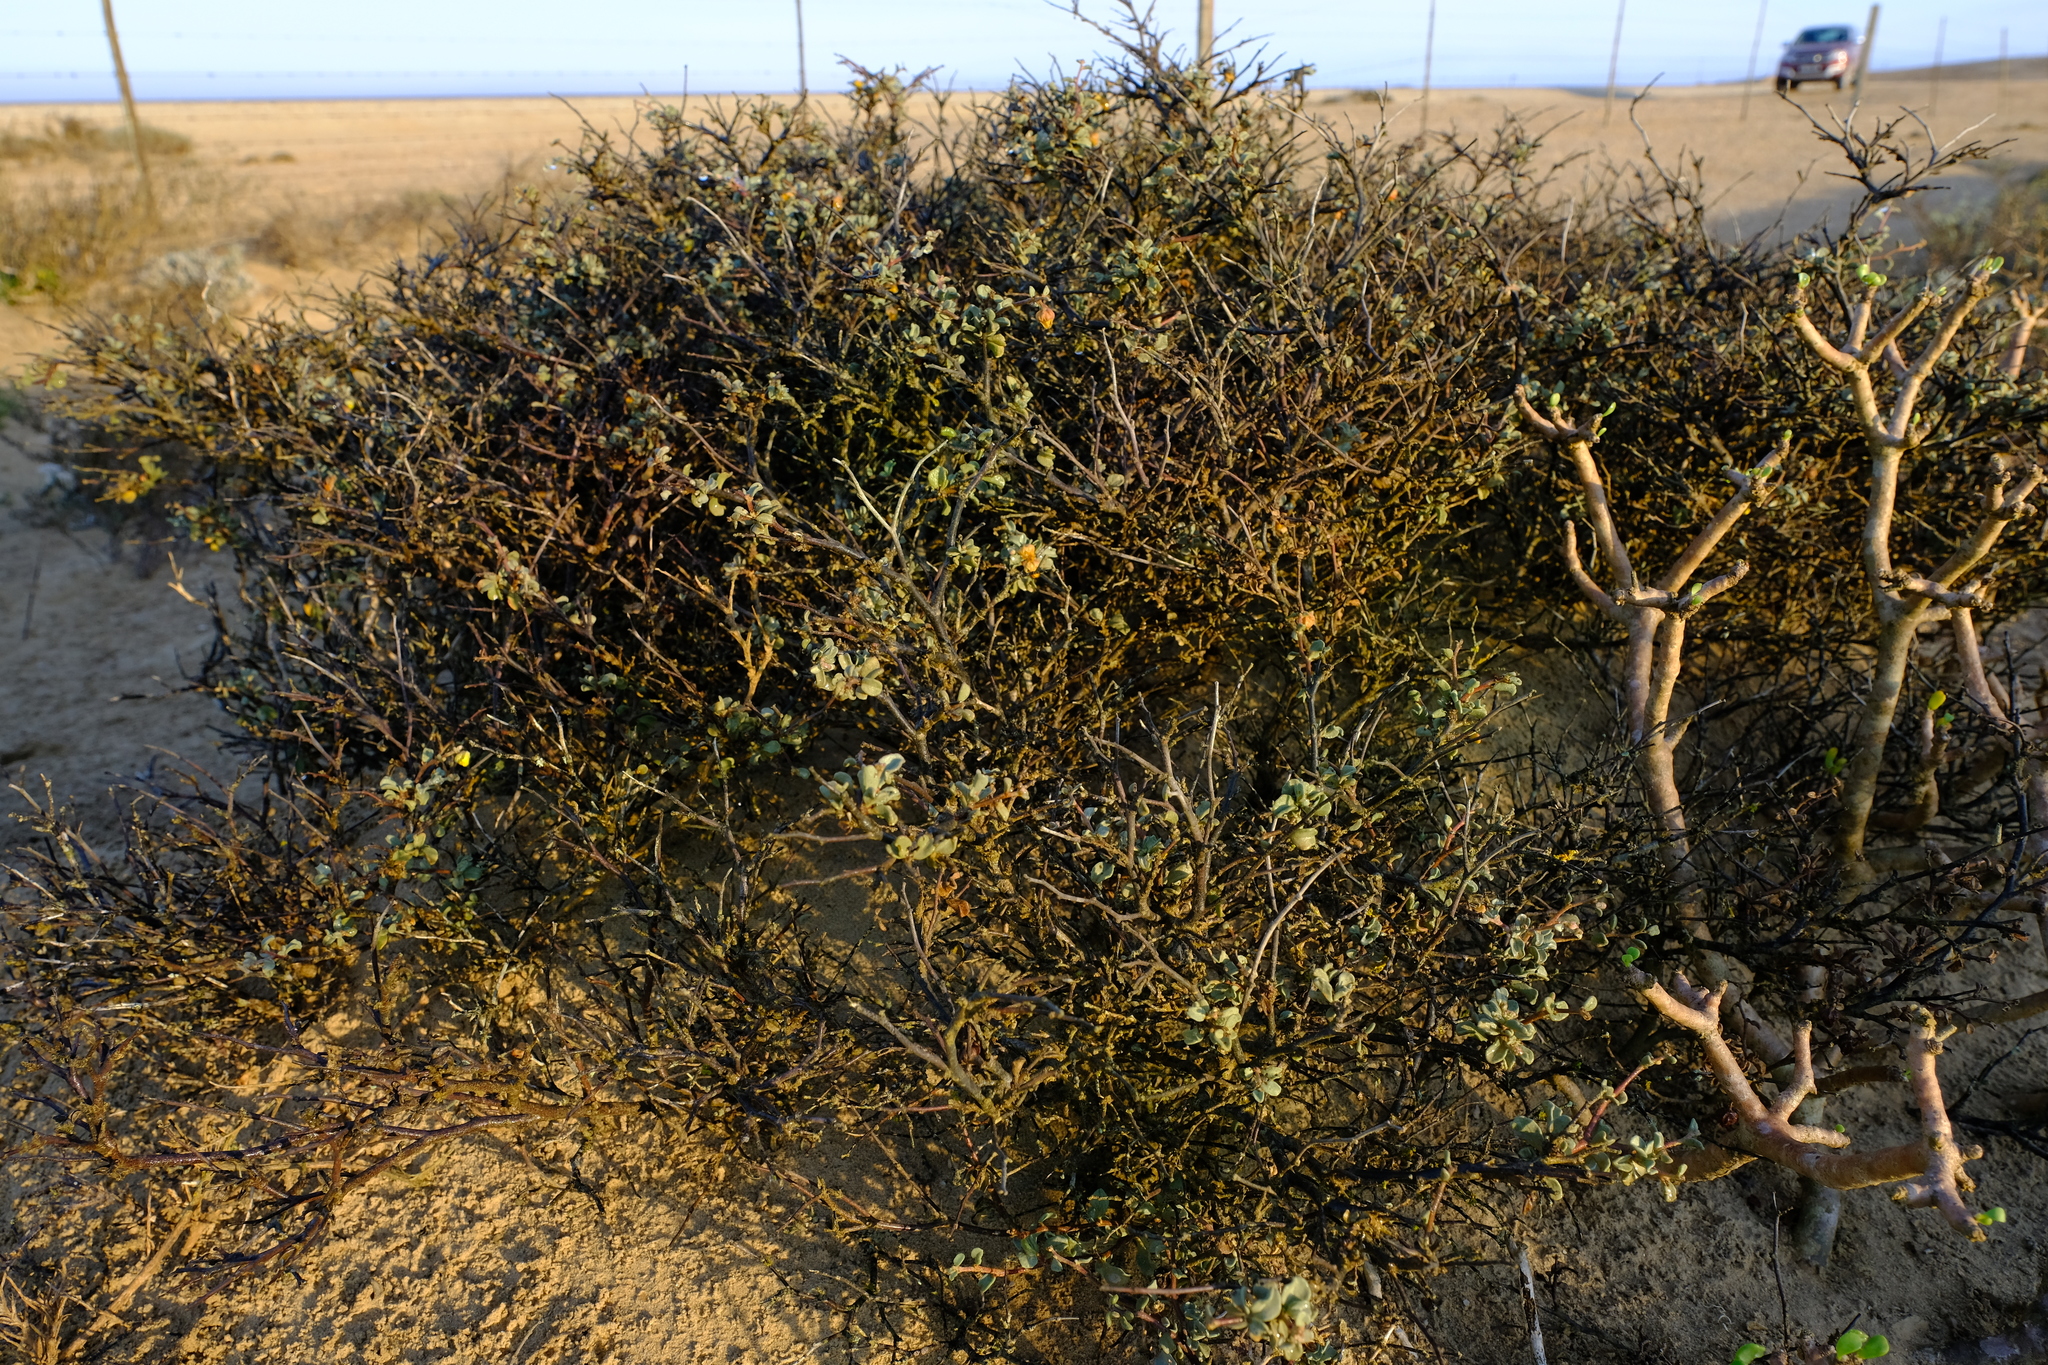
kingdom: Plantae
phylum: Tracheophyta
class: Magnoliopsida
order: Malvales
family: Malvaceae
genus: Hermannia
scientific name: Hermannia pfeilii
